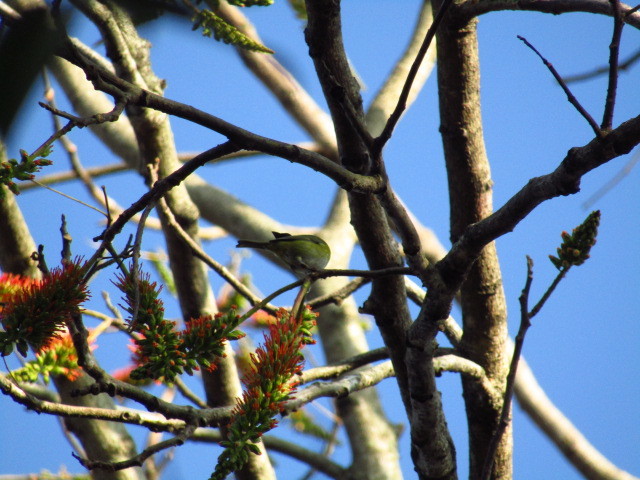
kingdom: Animalia
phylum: Chordata
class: Aves
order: Passeriformes
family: Passerellidae
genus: Chlorospingus
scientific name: Chlorospingus flavopectus
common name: Common chlorospingus
